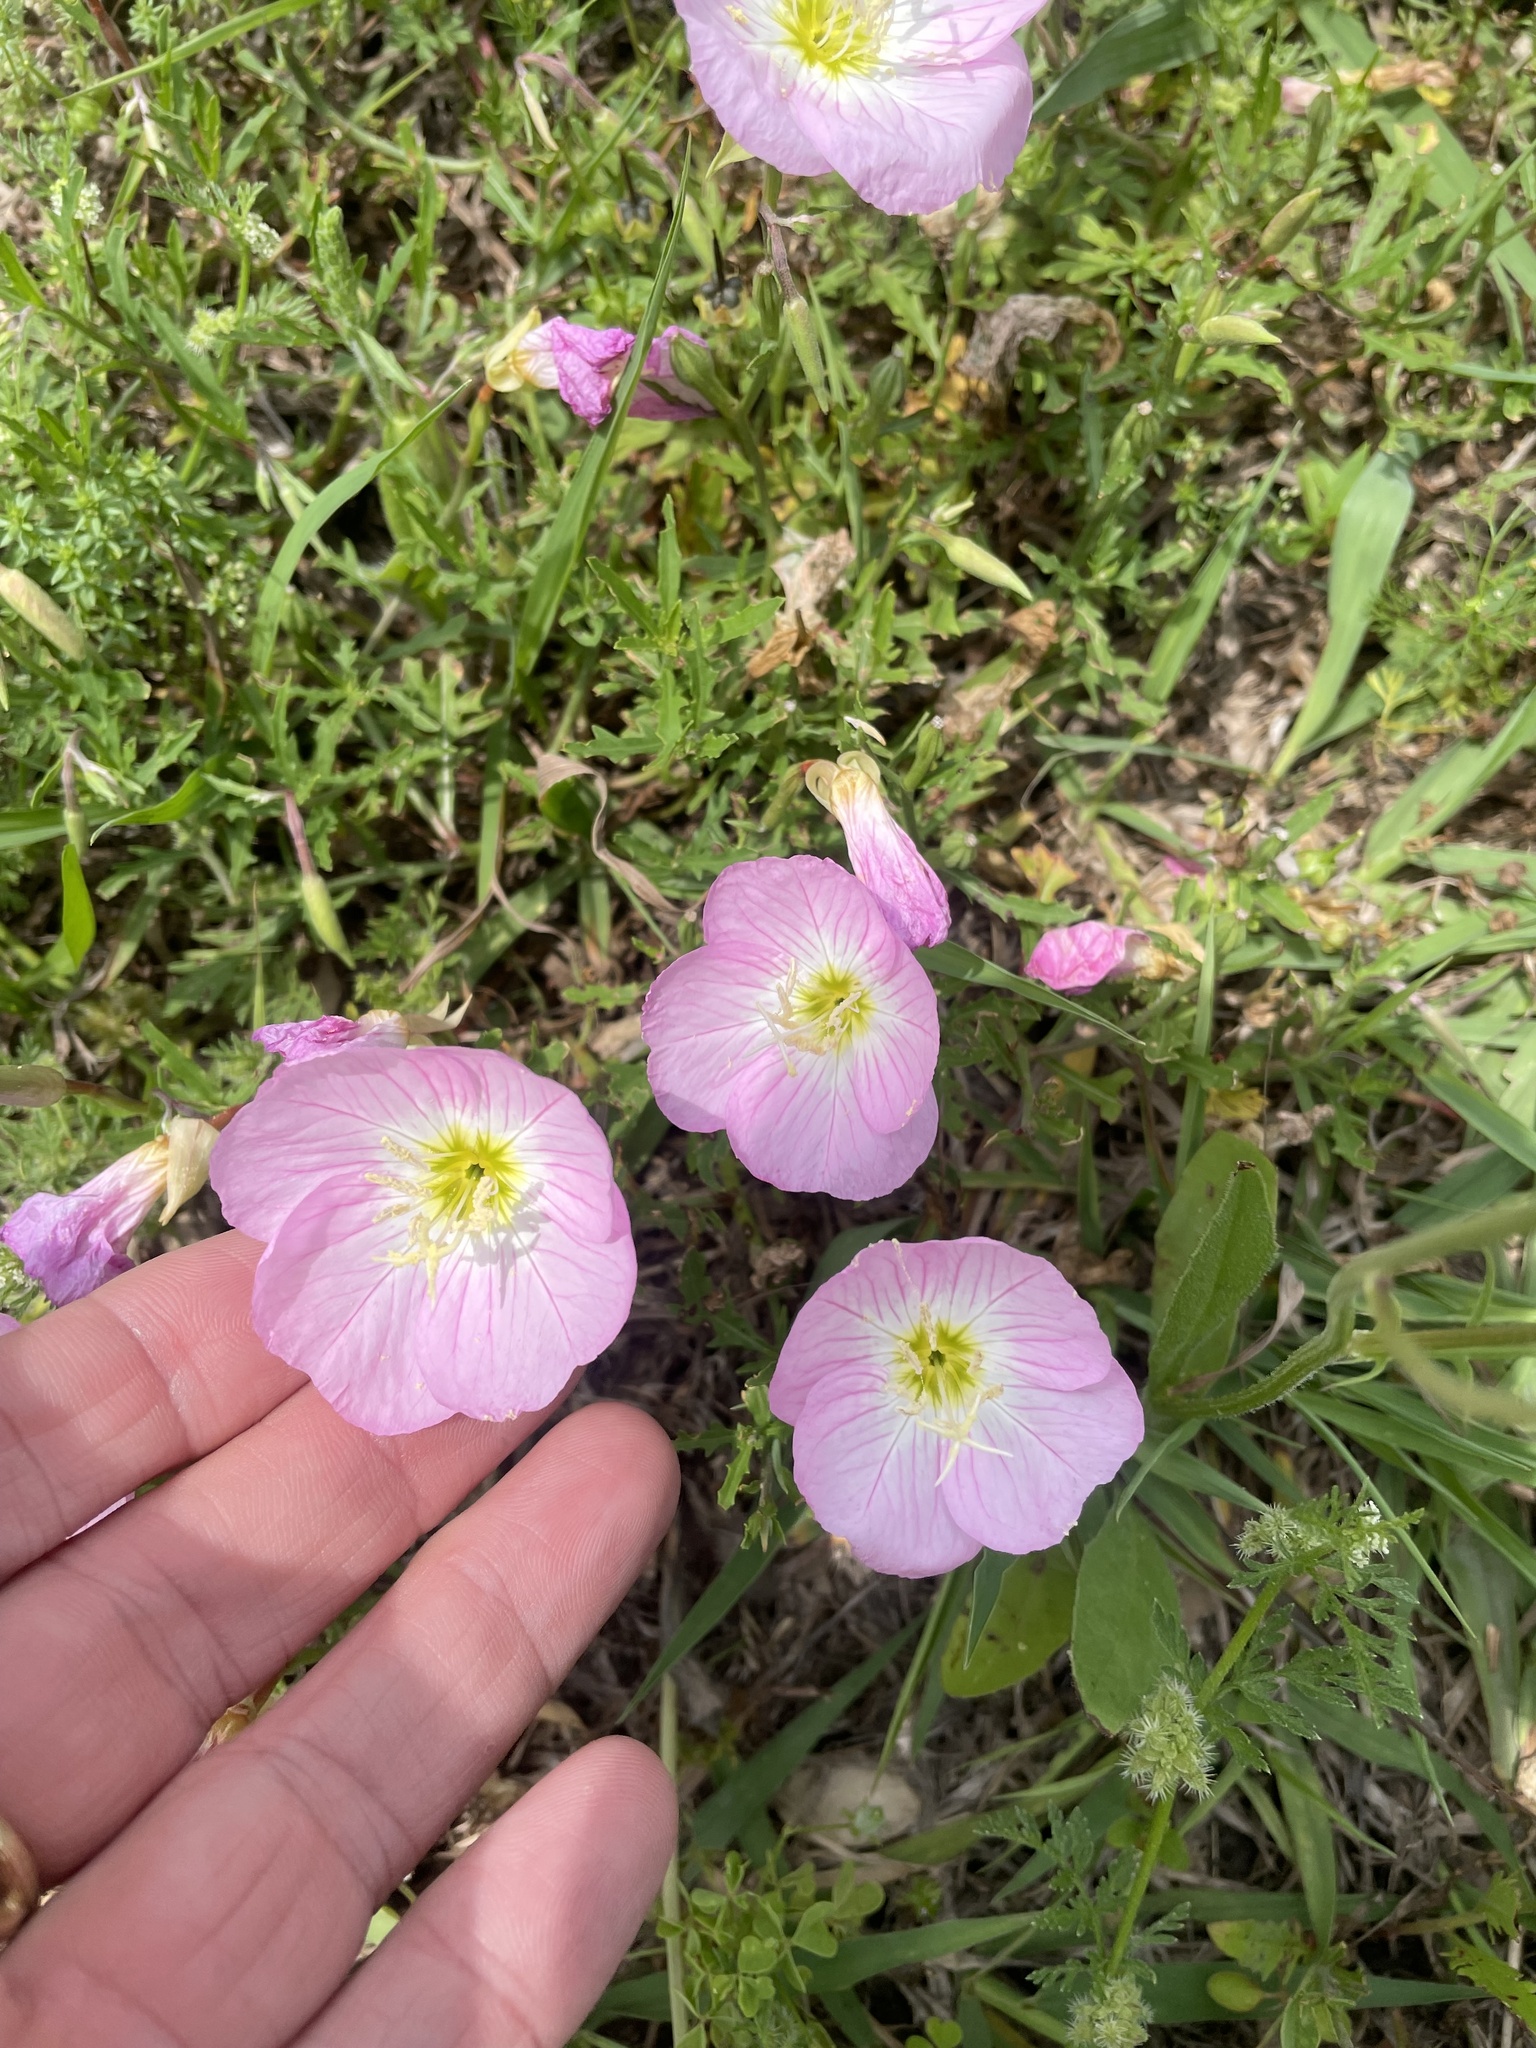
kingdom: Plantae
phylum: Tracheophyta
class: Magnoliopsida
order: Myrtales
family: Onagraceae
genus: Oenothera
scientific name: Oenothera speciosa
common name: White evening-primrose
